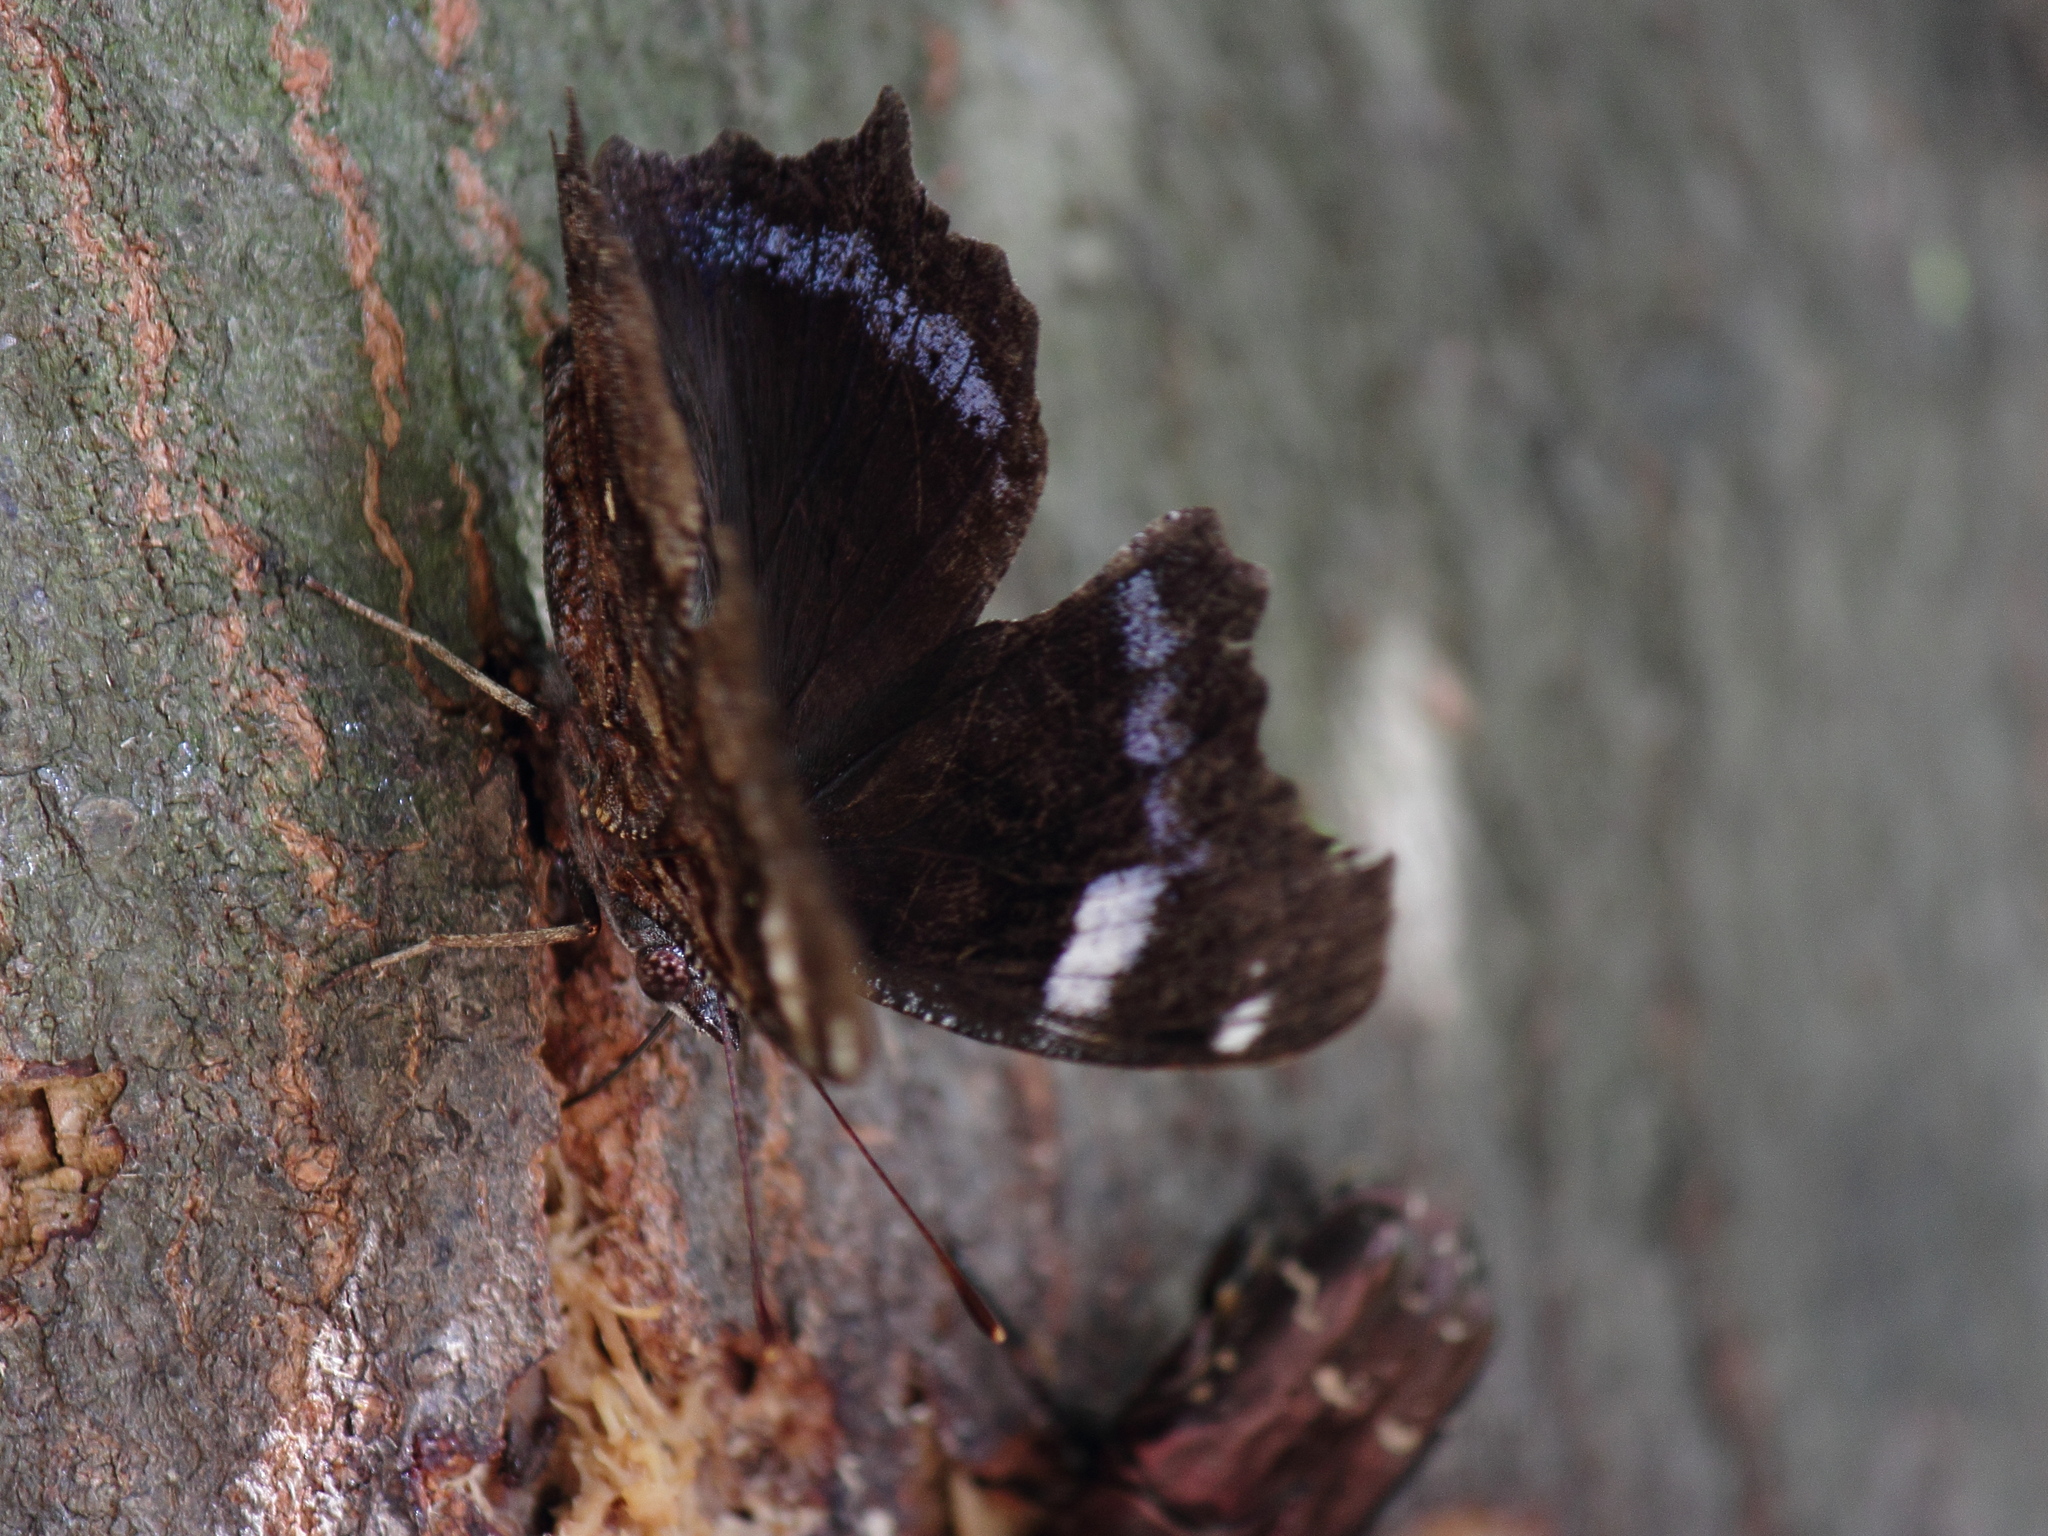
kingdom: Animalia
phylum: Arthropoda
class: Insecta
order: Lepidoptera
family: Nymphalidae
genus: Vanessa
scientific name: Vanessa Kaniska canace
